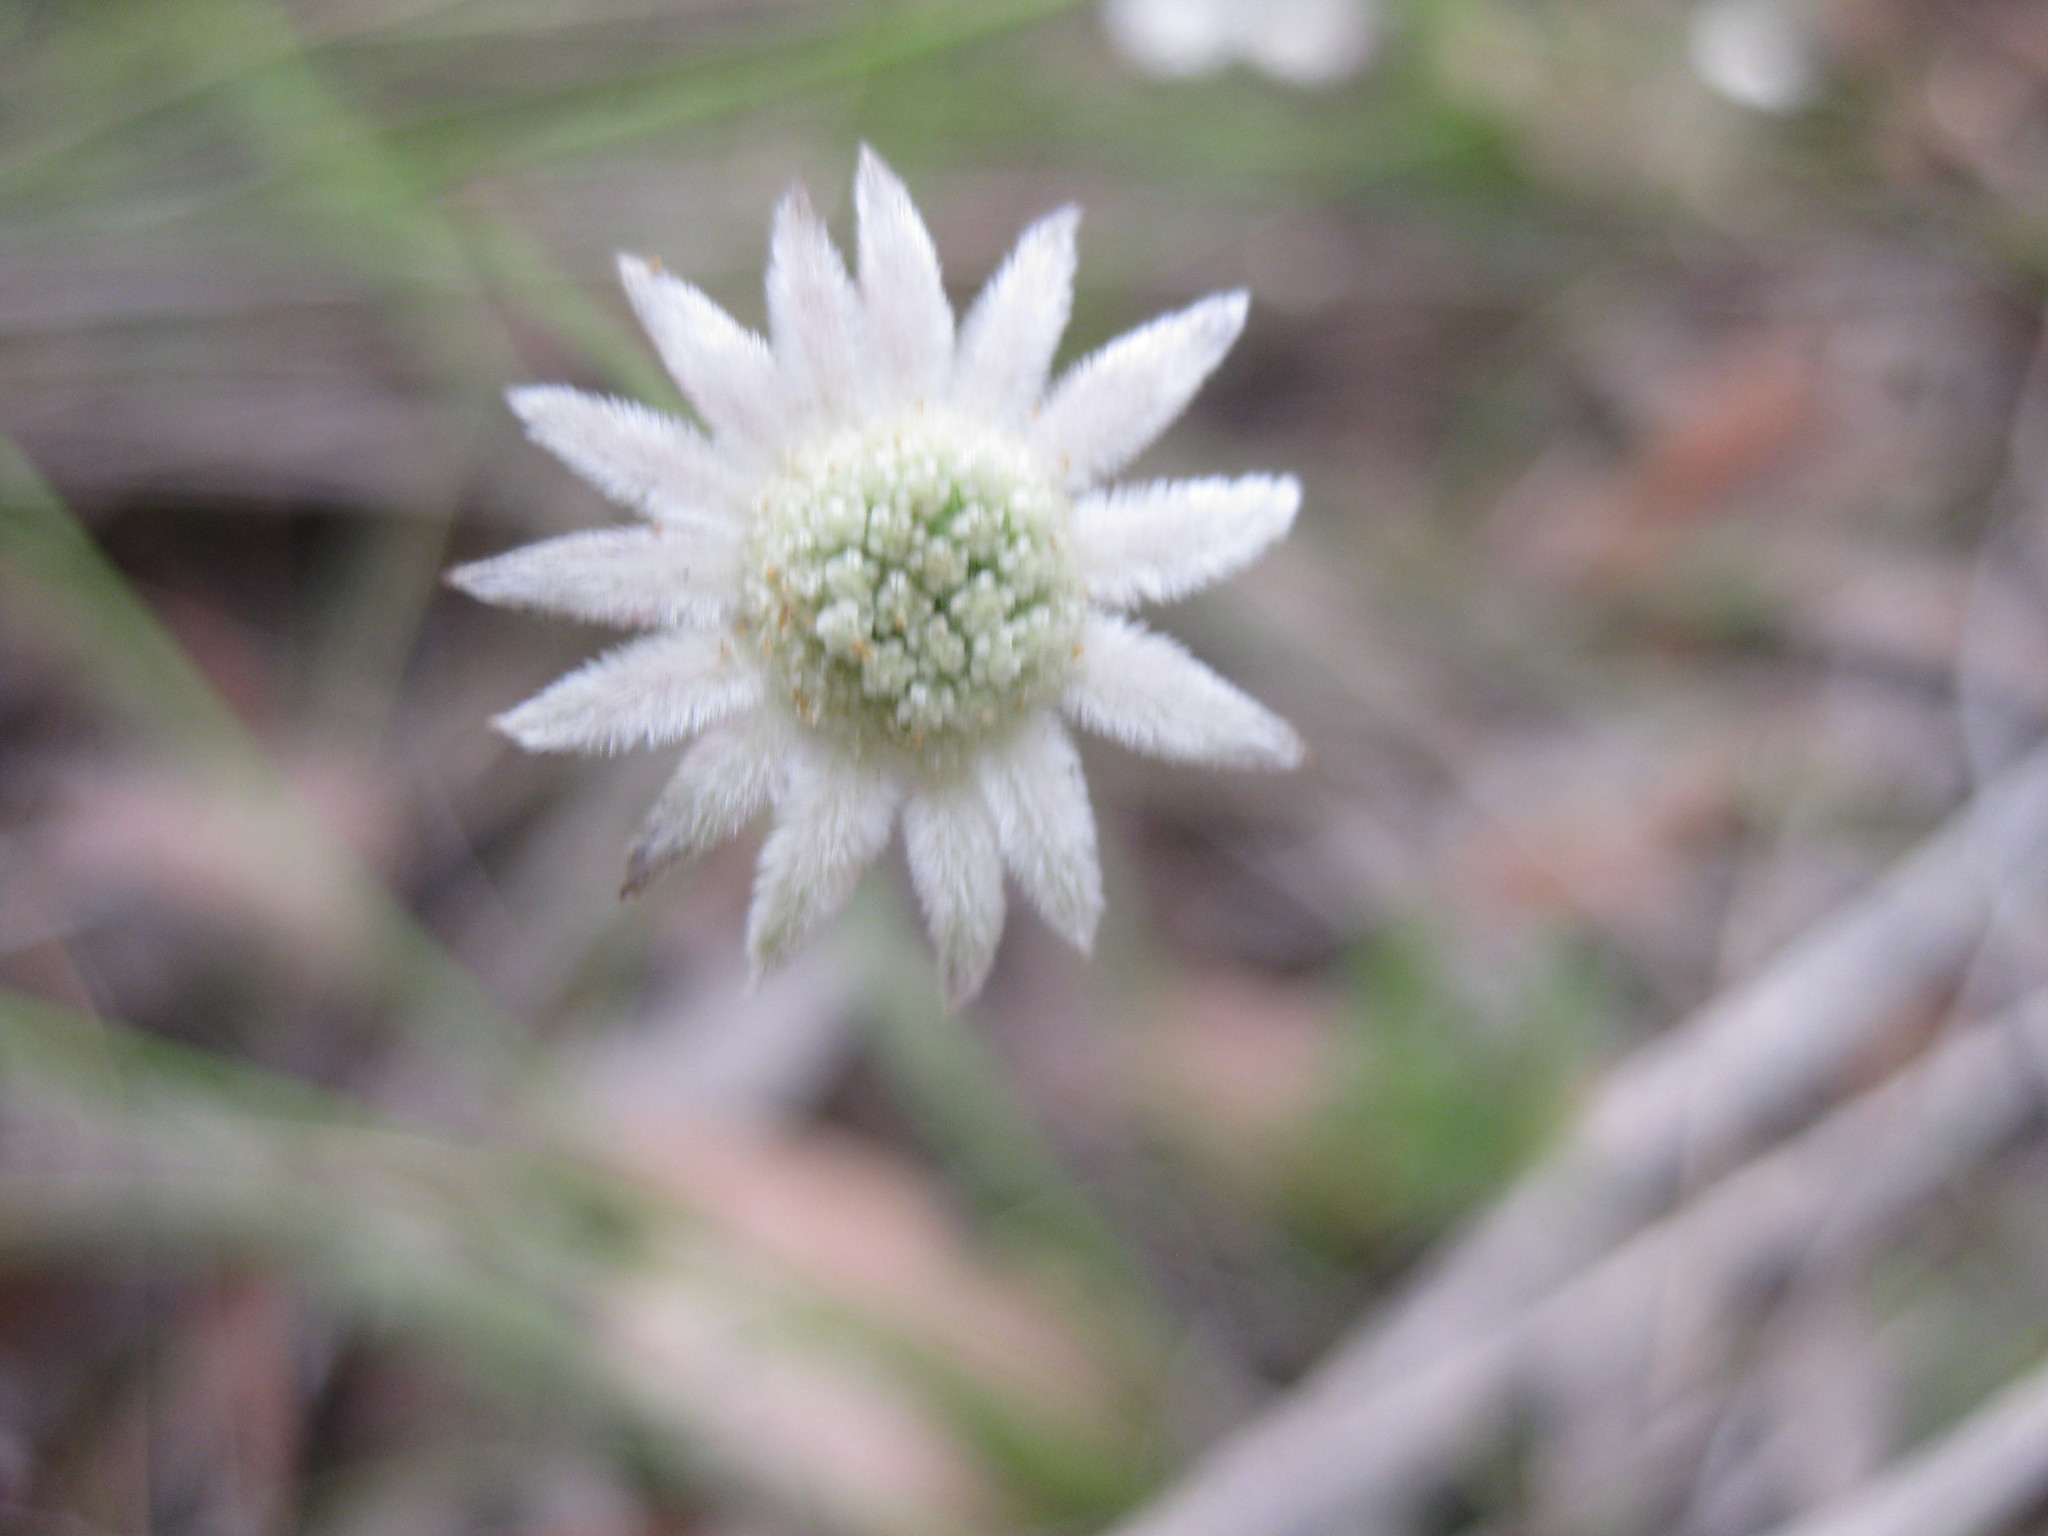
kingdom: Plantae
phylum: Tracheophyta
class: Magnoliopsida
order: Apiales
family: Apiaceae
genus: Actinotus
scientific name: Actinotus minor
